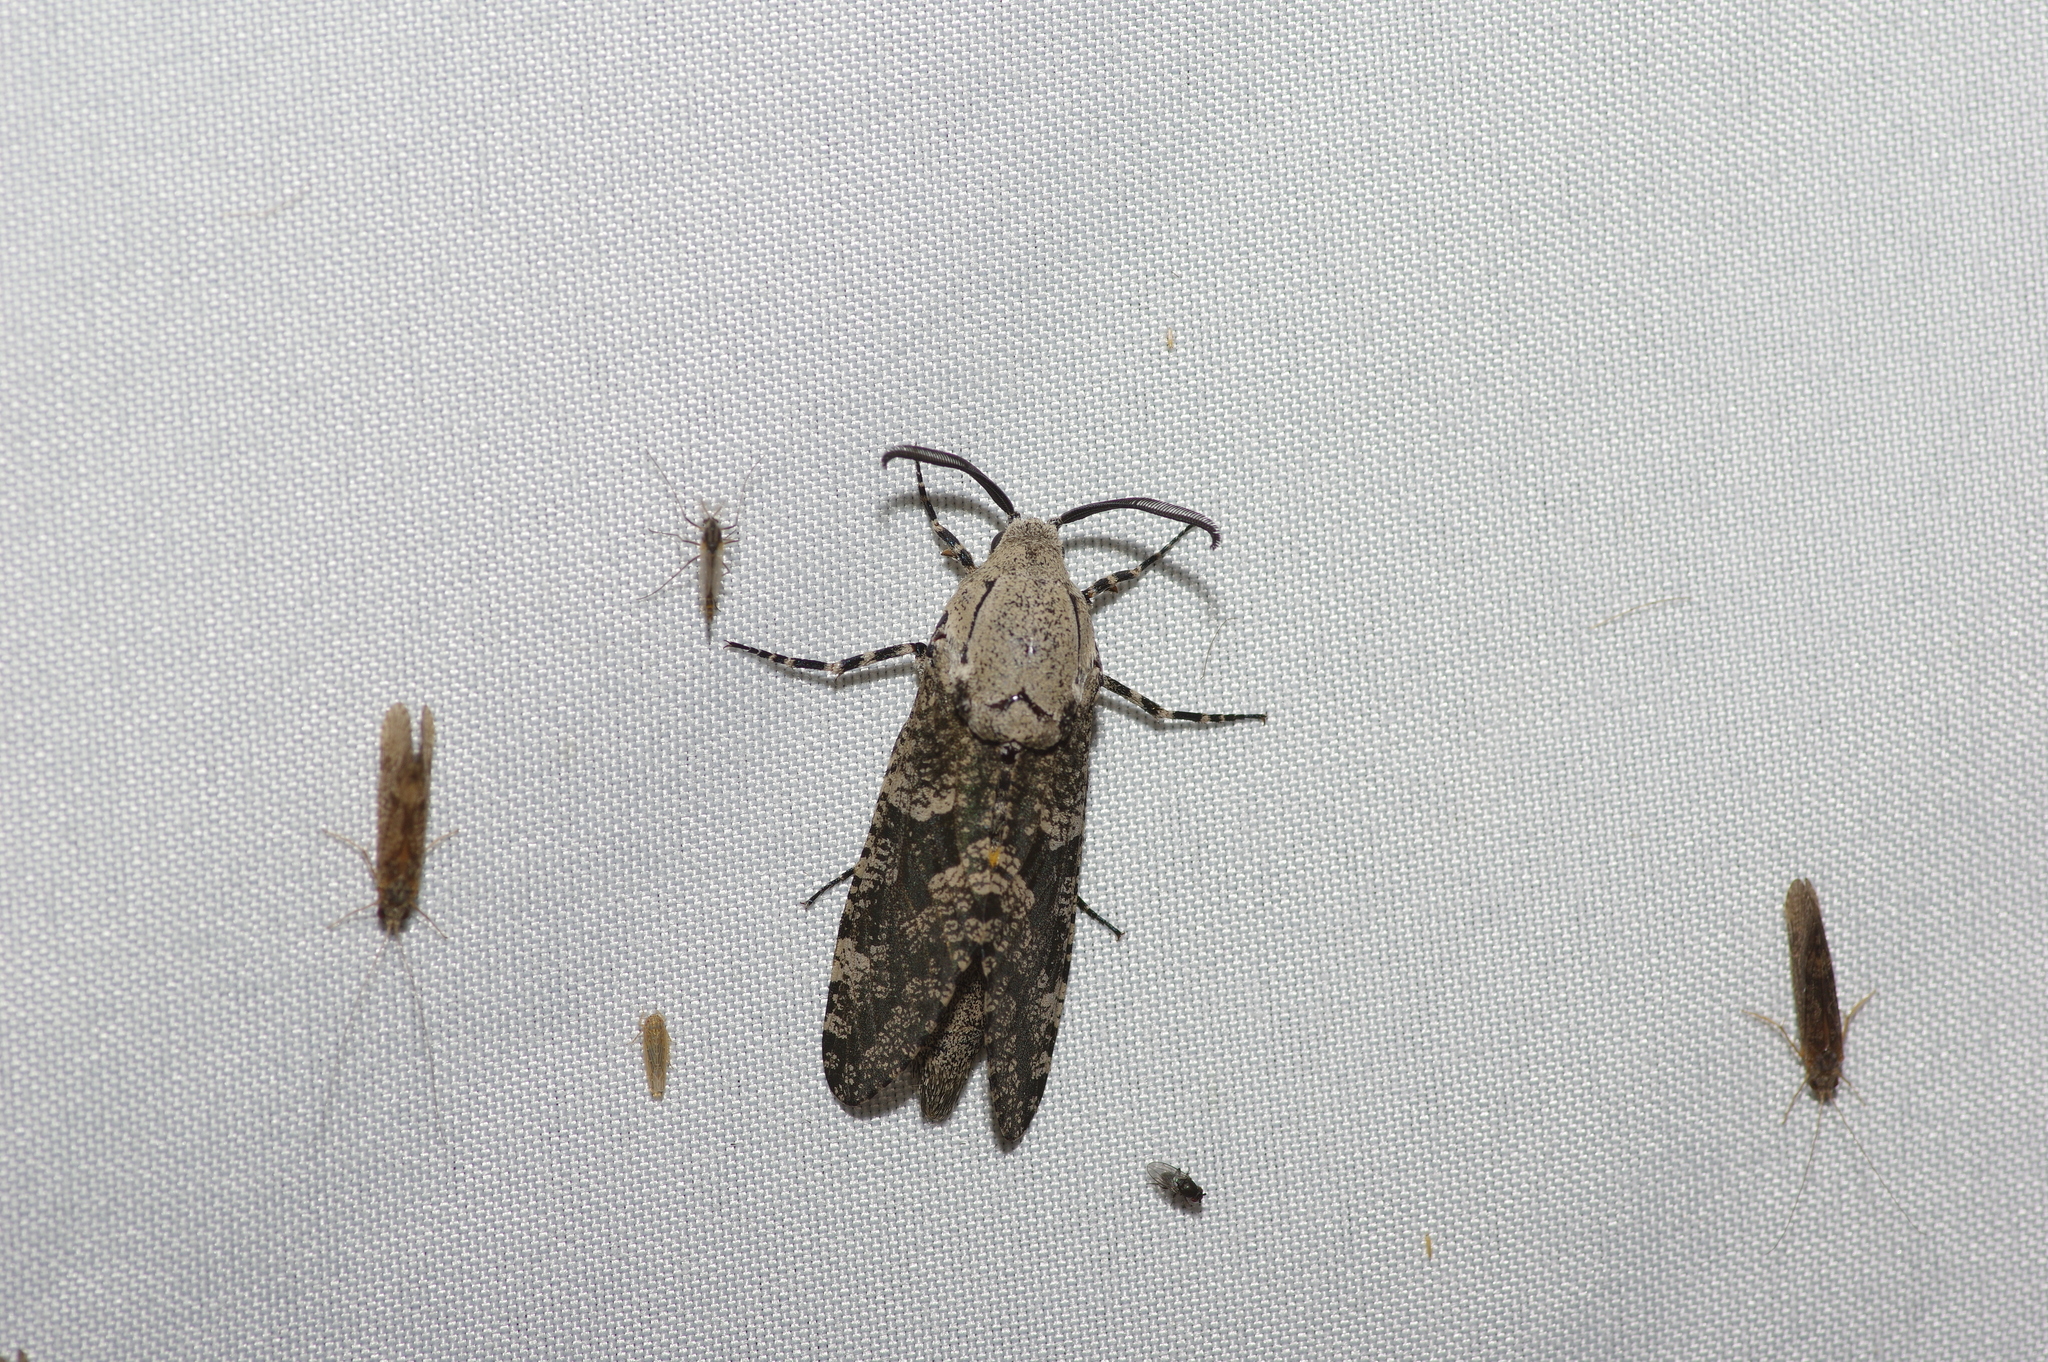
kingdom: Animalia
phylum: Arthropoda
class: Insecta
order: Lepidoptera
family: Cossidae
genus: Prionoxystus
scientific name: Prionoxystus robiniae
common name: Carpenterworm
